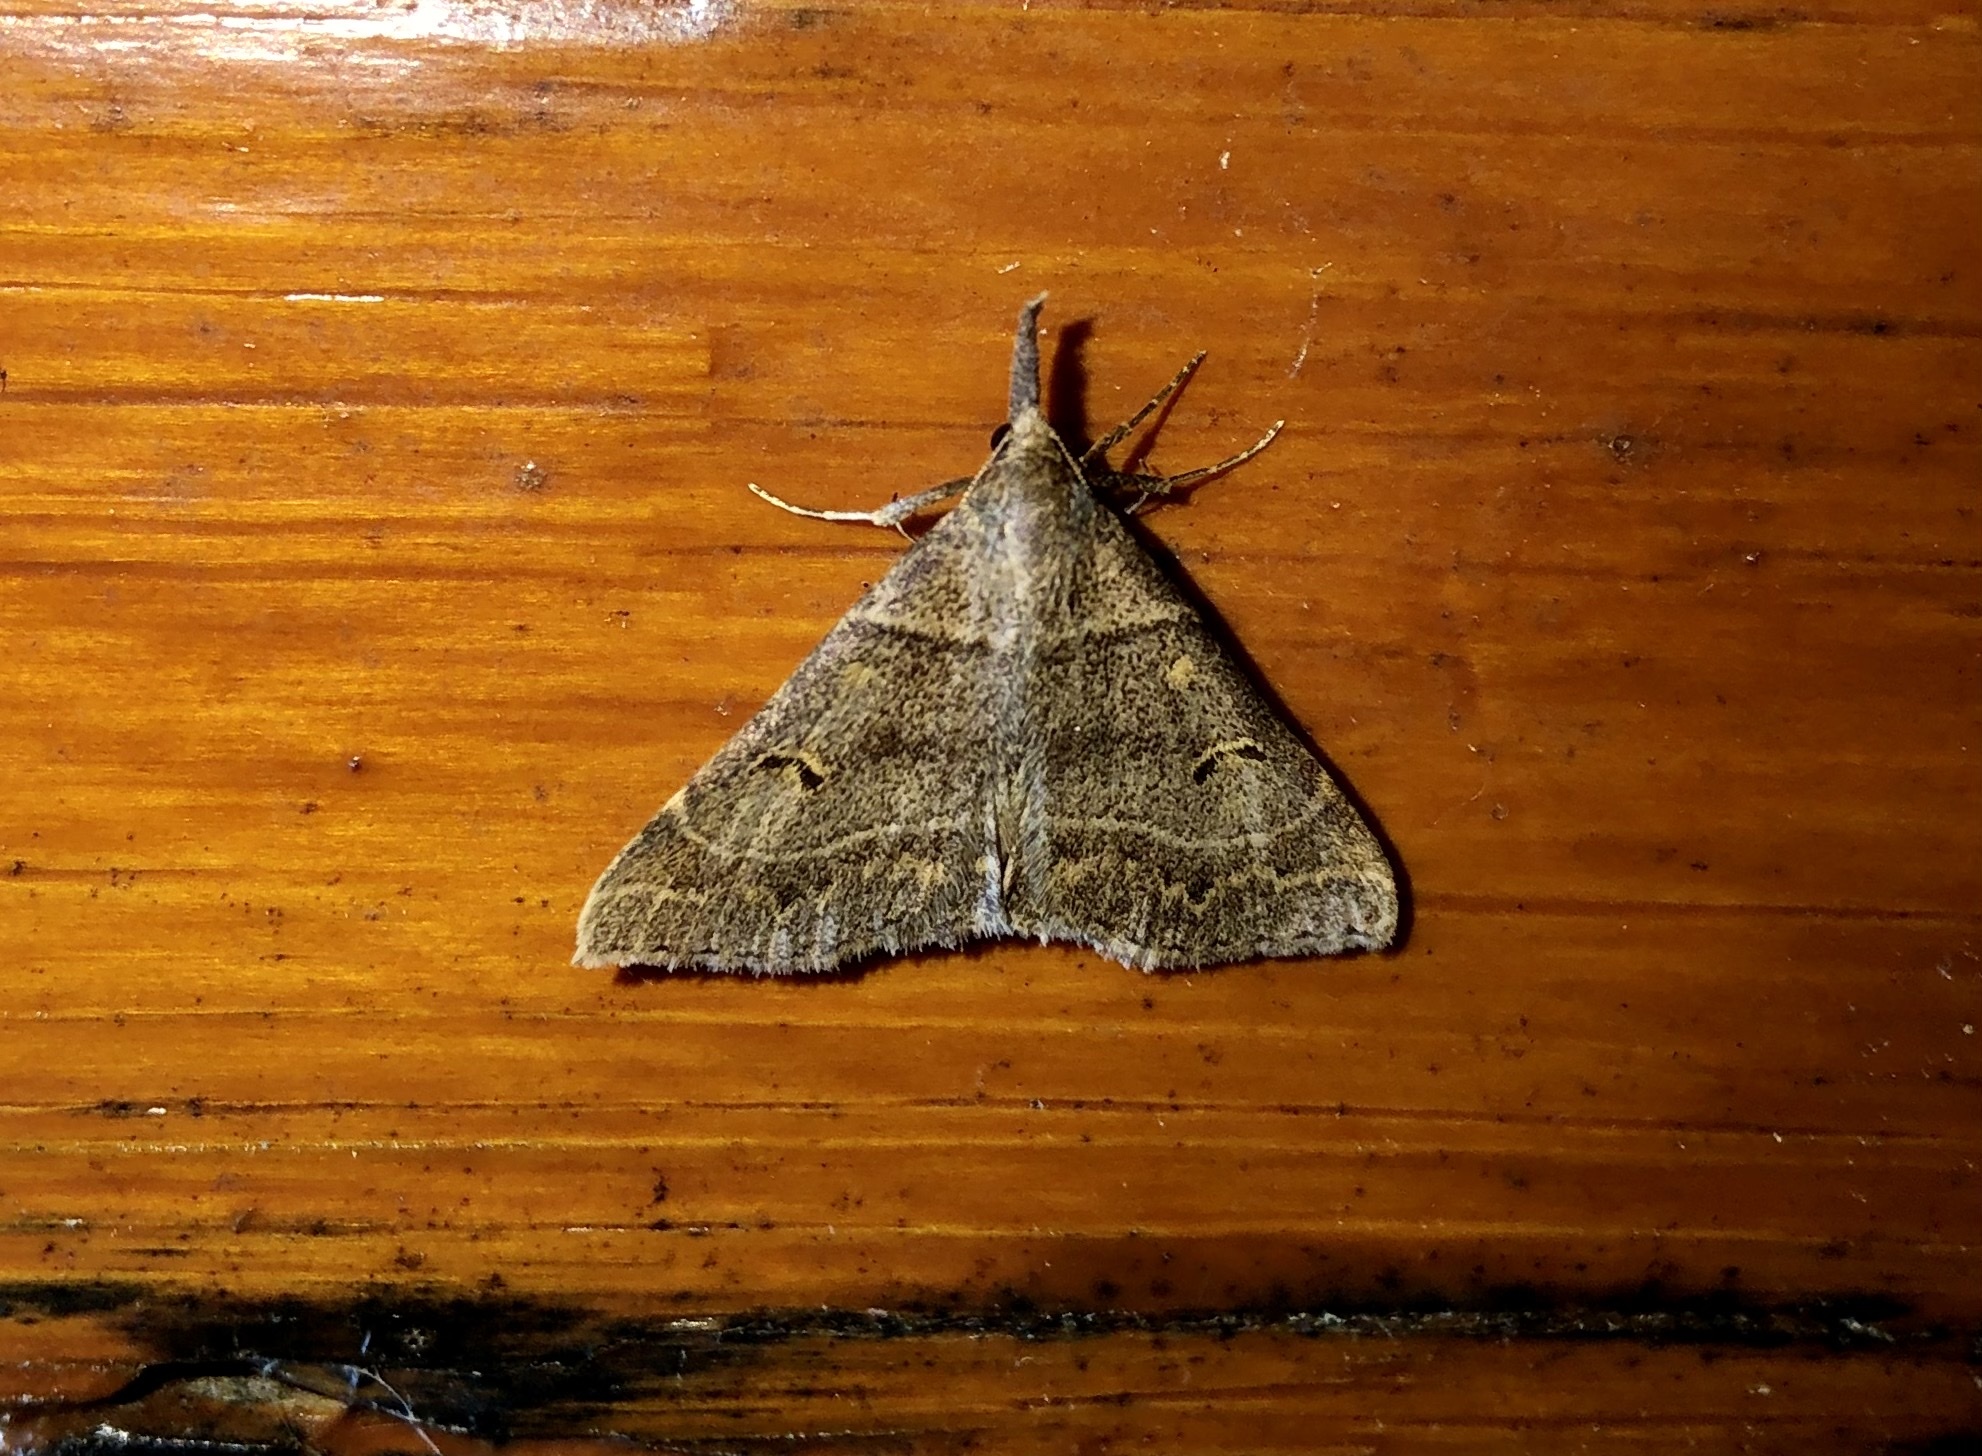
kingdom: Animalia
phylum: Arthropoda
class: Insecta
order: Lepidoptera
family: Erebidae
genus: Renia
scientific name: Renia flavipunctalis
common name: Yellow-spotted renia moth
